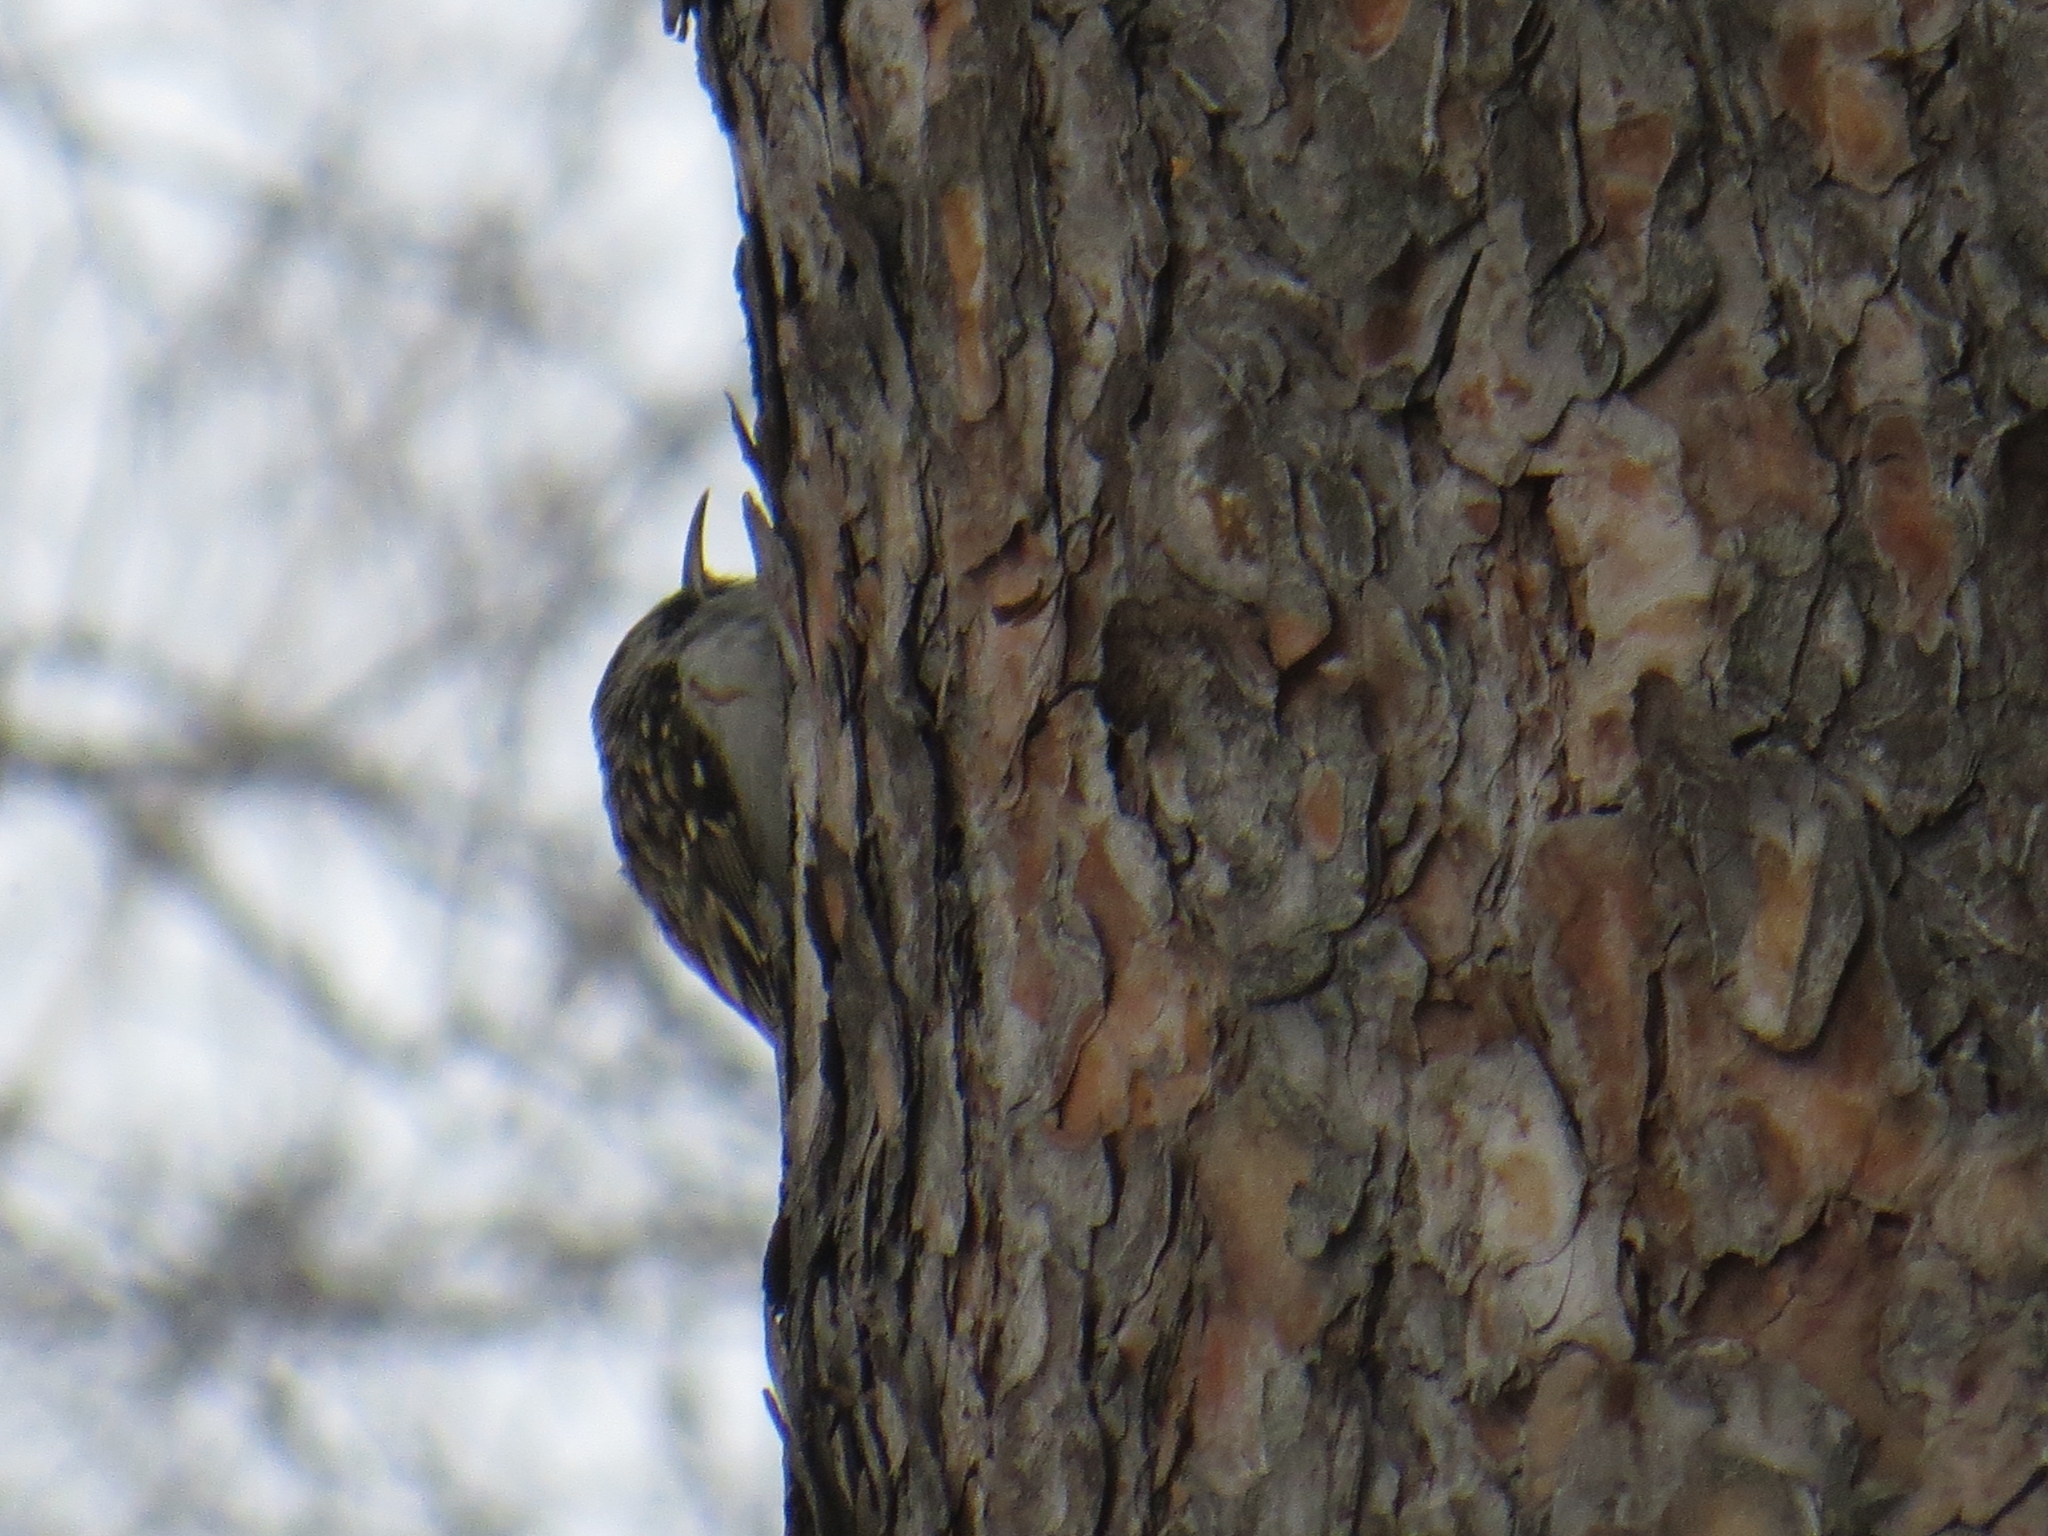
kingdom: Animalia
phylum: Chordata
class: Aves
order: Passeriformes
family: Certhiidae
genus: Certhia
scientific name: Certhia familiaris
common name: Eurasian treecreeper
